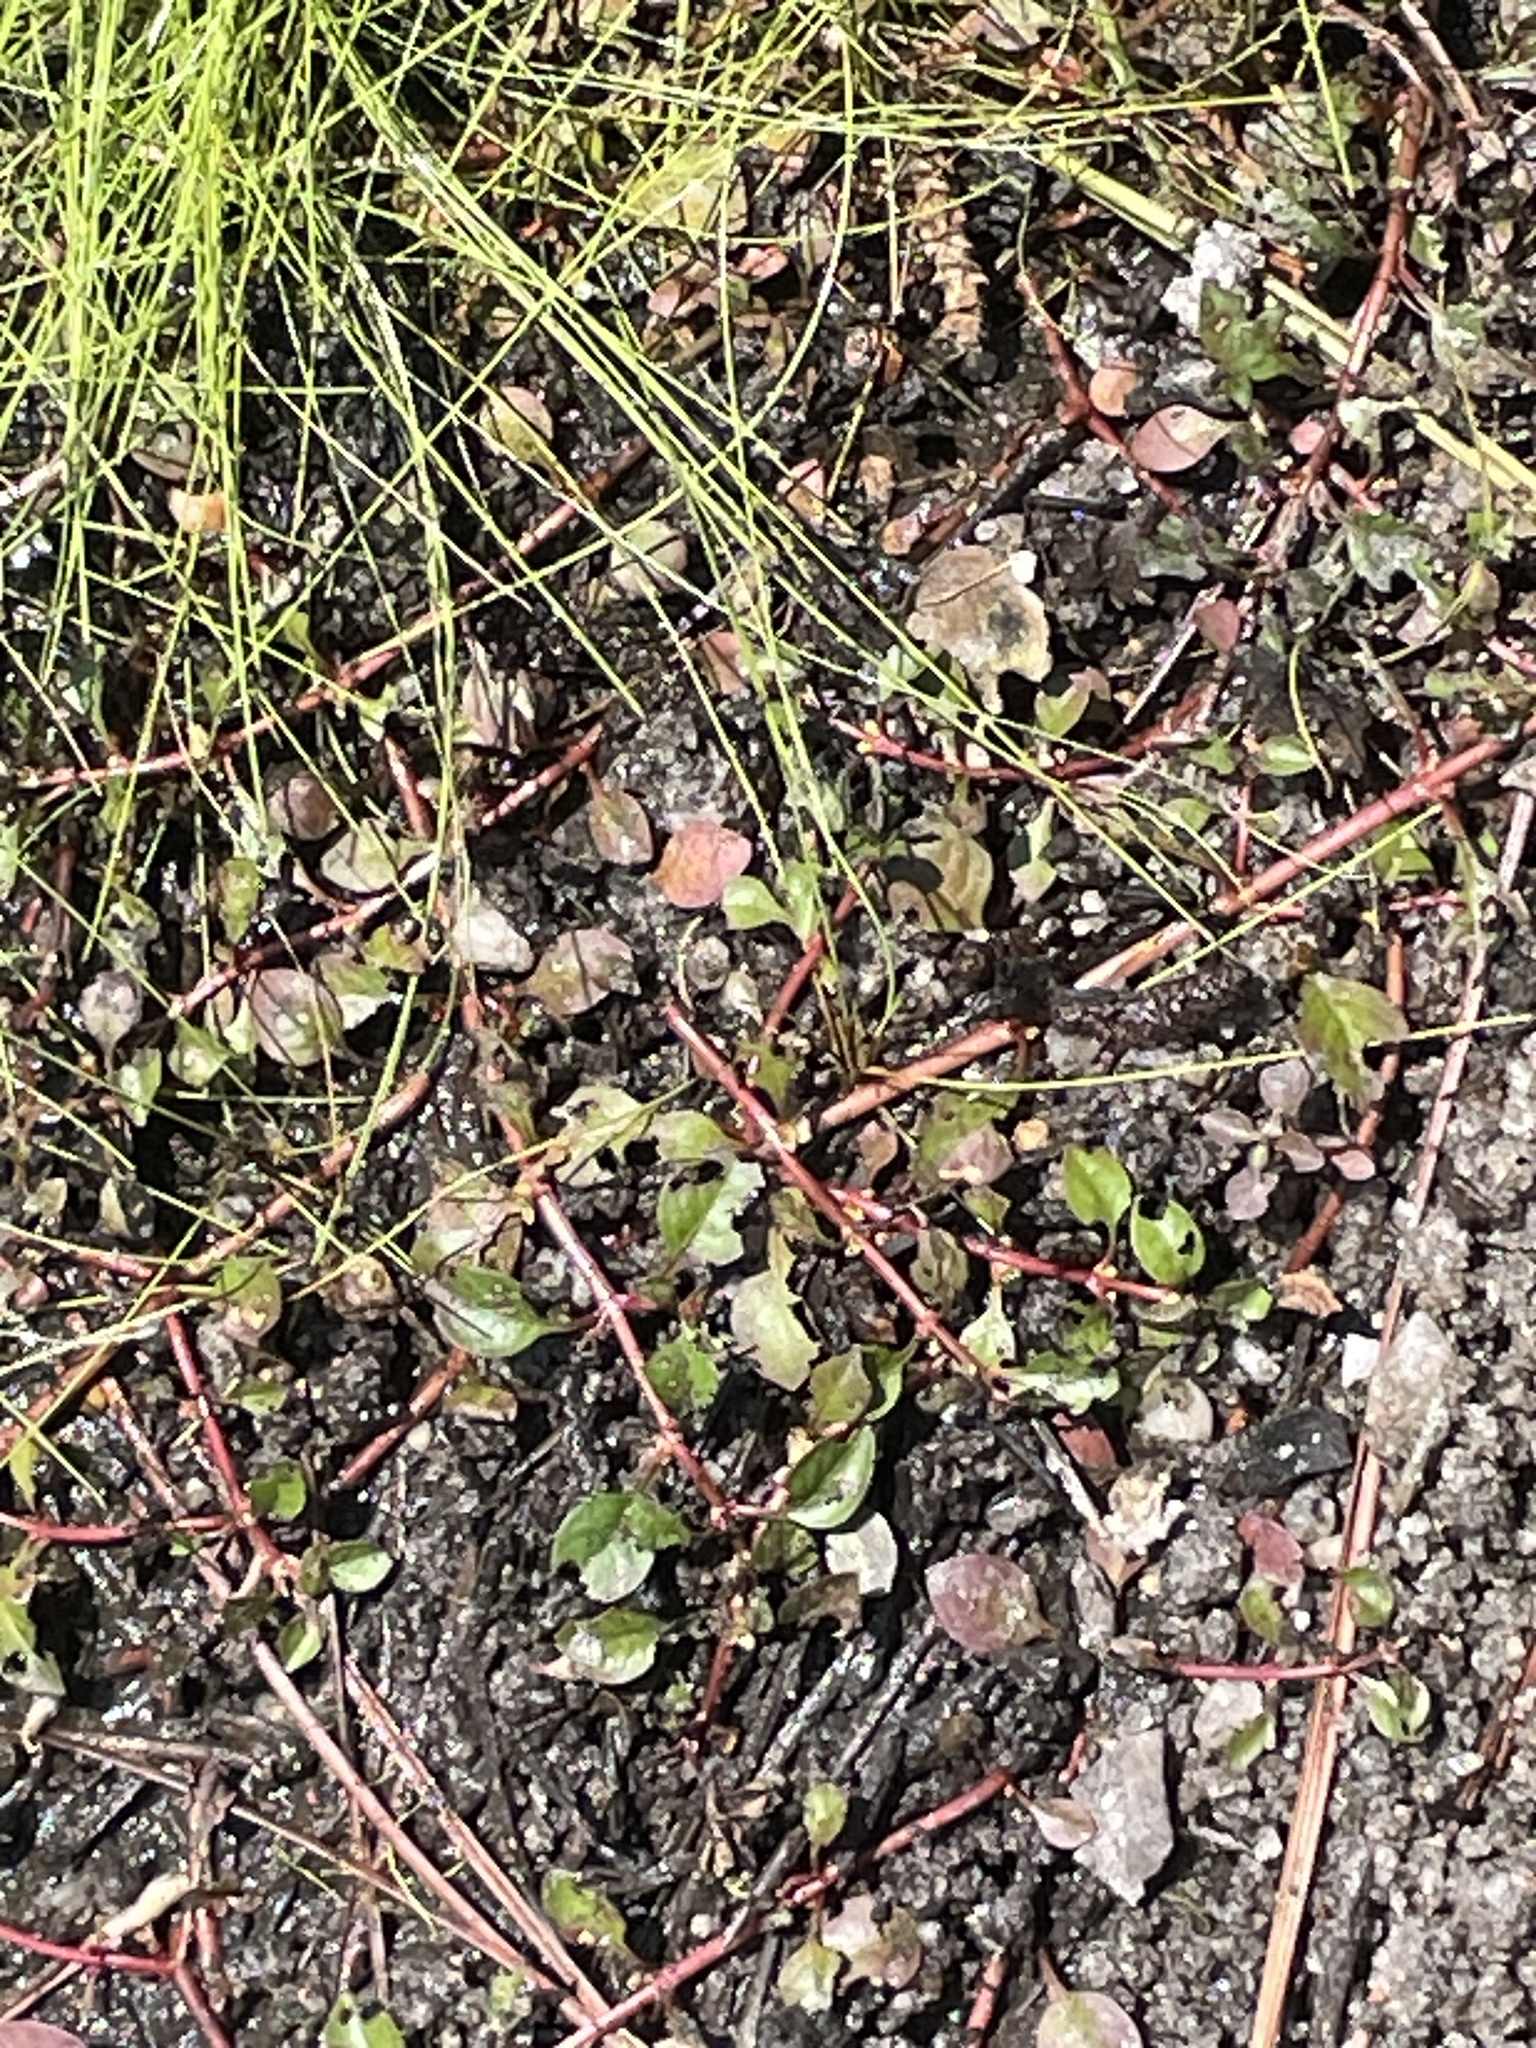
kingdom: Plantae
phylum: Tracheophyta
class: Magnoliopsida
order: Myrtales
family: Onagraceae
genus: Ludwigia
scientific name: Ludwigia palustris
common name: Hampshire-purslane
